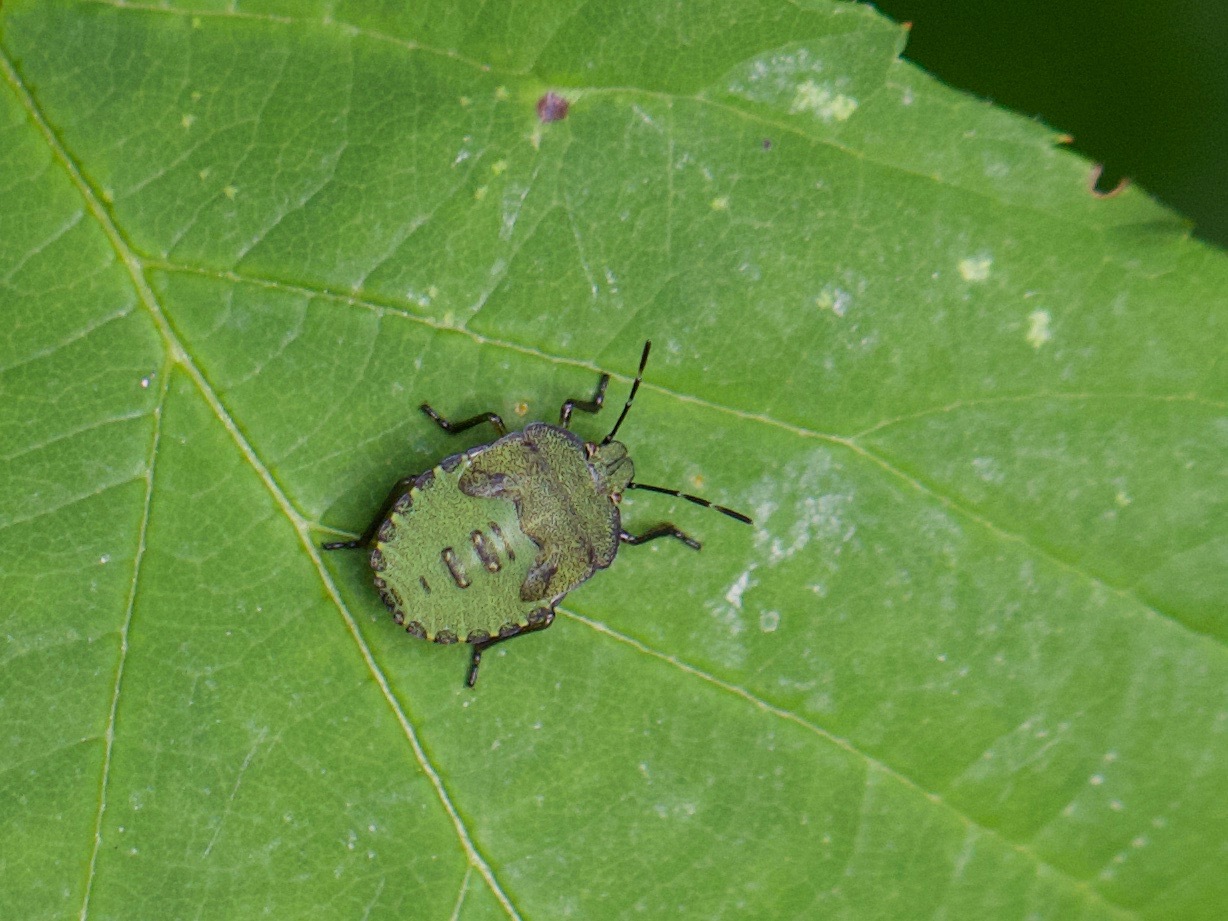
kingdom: Animalia
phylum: Arthropoda
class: Insecta
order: Hemiptera
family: Pentatomidae
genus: Palomena
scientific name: Palomena prasina
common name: Green shieldbug
